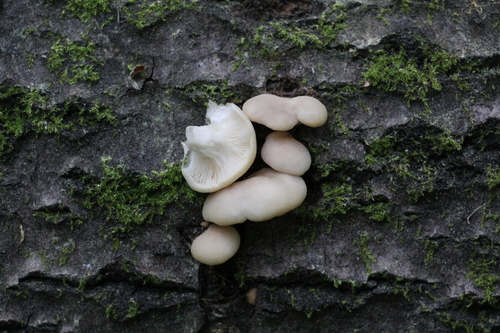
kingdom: Fungi
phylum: Basidiomycota
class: Agaricomycetes
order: Agaricales
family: Pleurotaceae
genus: Pleurotus
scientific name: Pleurotus pulmonarius
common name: Pale oyster
